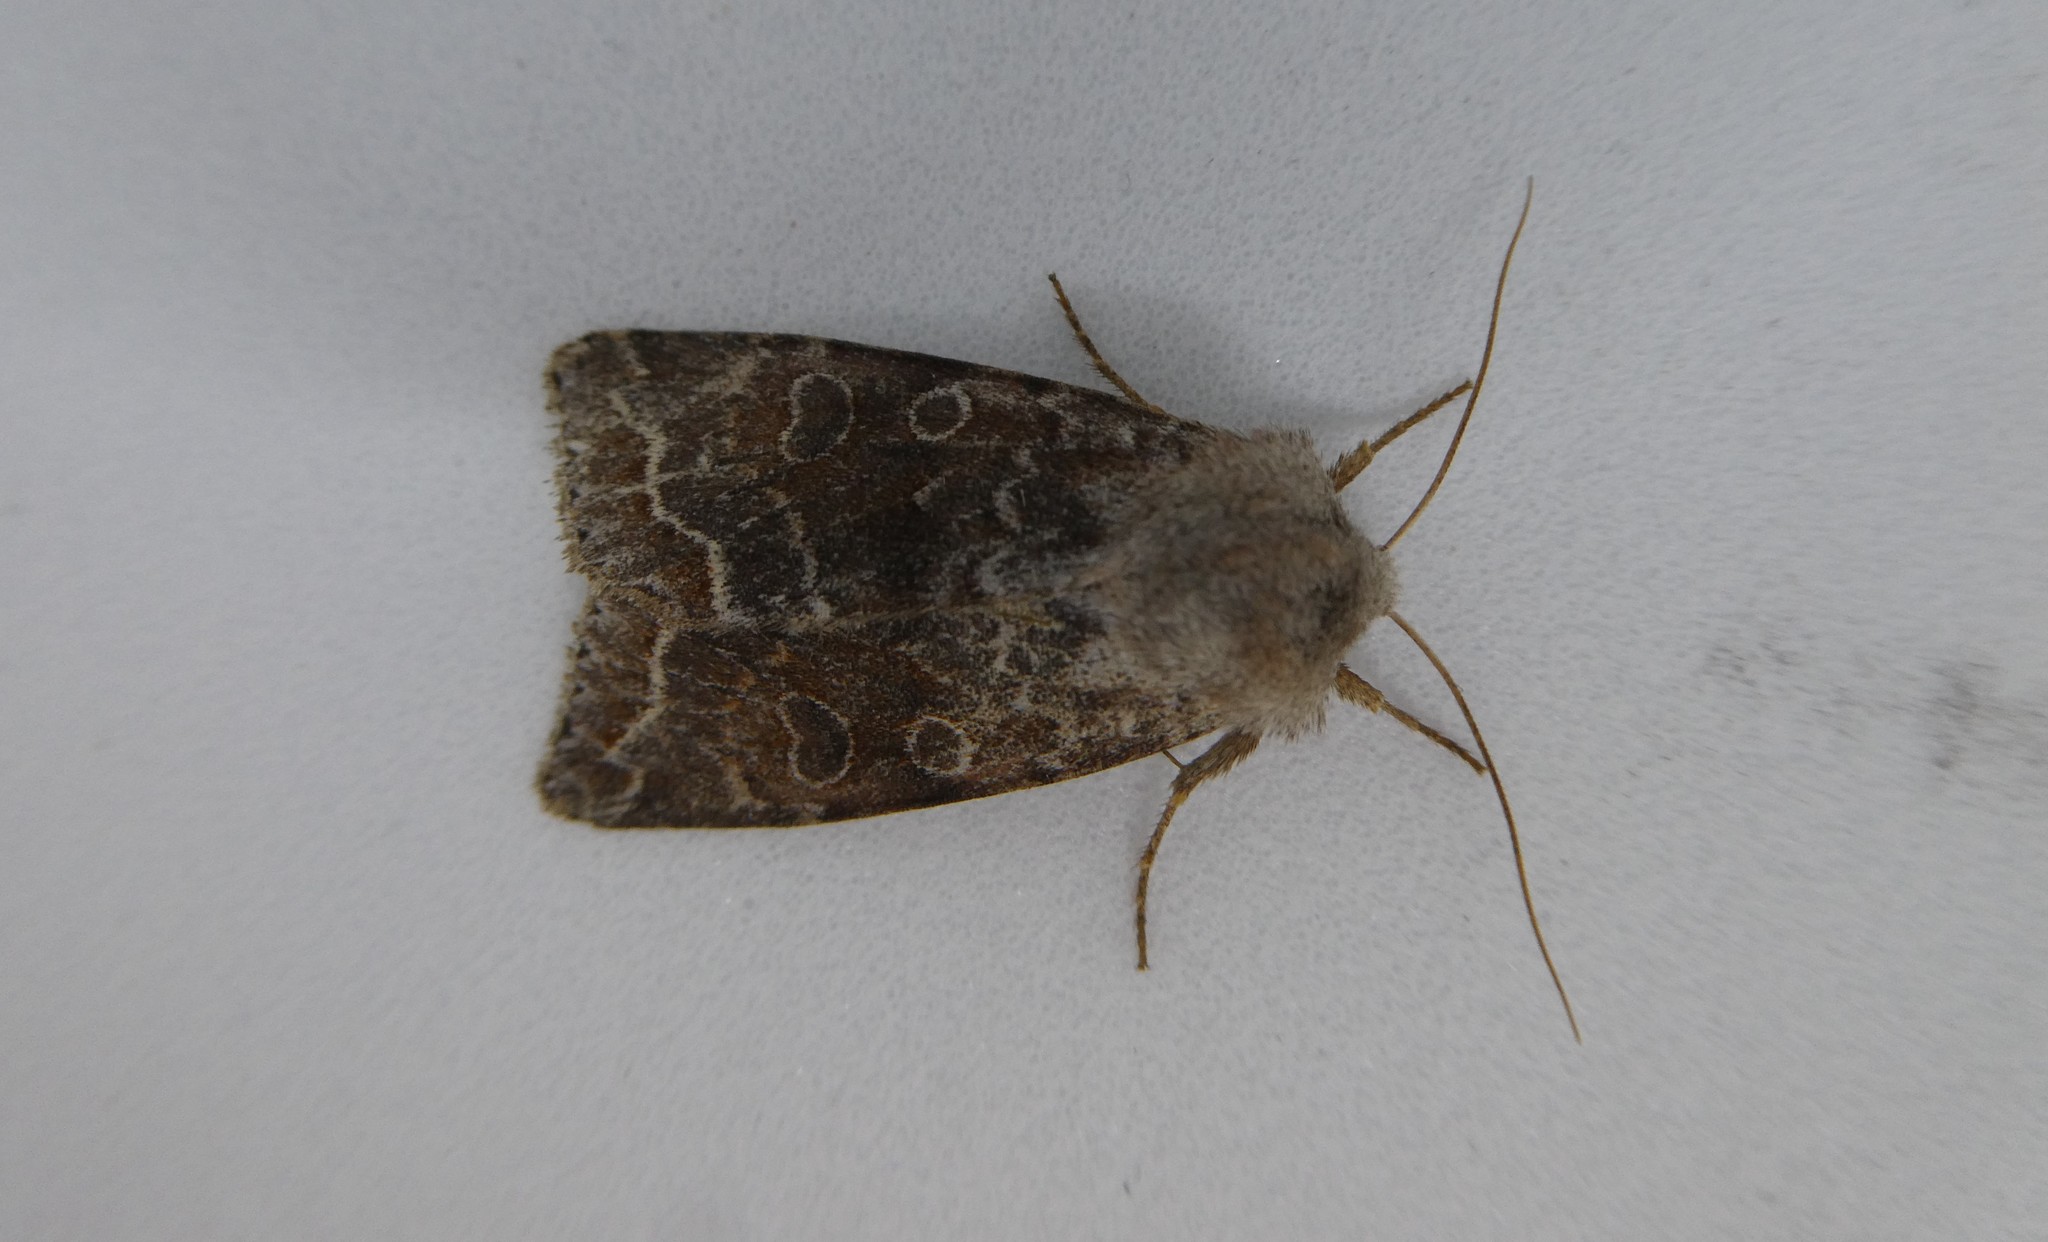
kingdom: Animalia
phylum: Arthropoda
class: Insecta
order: Lepidoptera
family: Noctuidae
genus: Orthosia
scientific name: Orthosia revicta
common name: Rusty whitesided caterpillar
